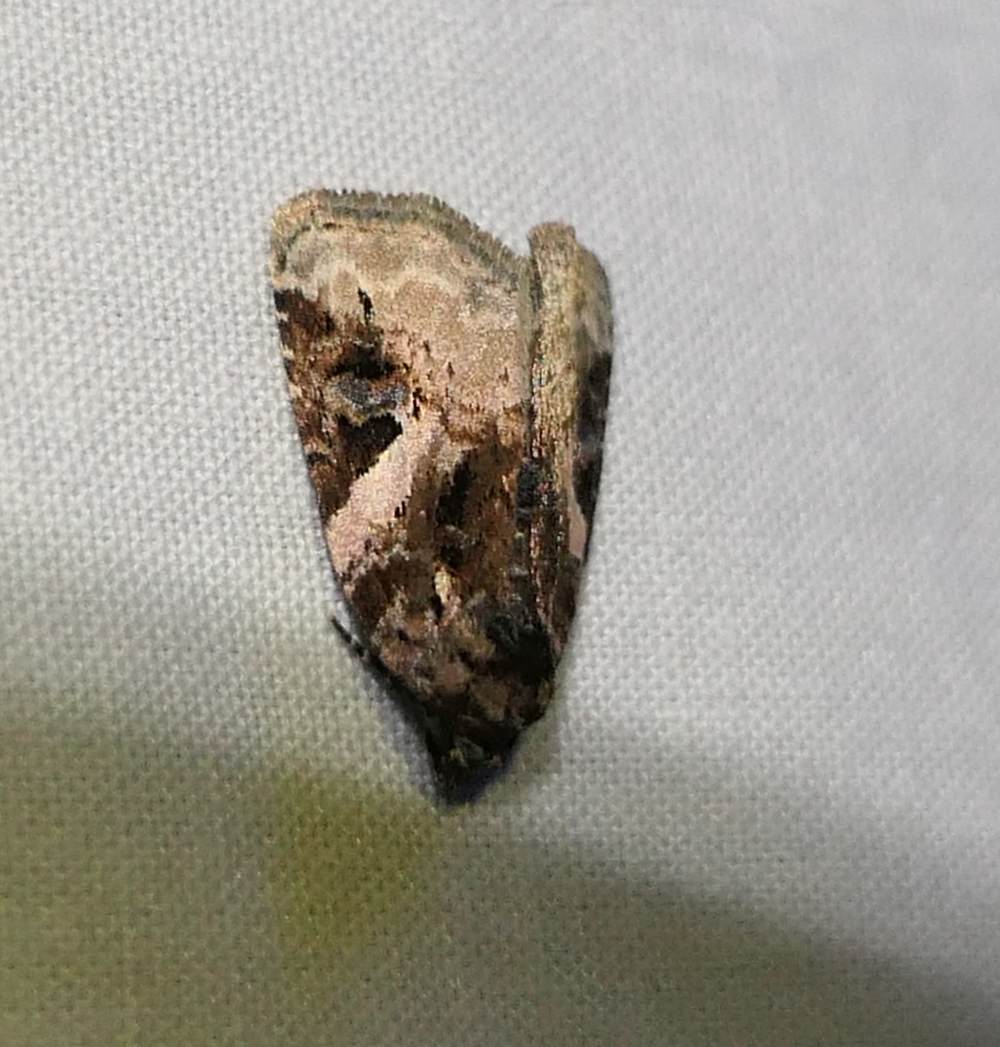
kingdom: Animalia
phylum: Arthropoda
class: Insecta
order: Lepidoptera
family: Noctuidae
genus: Pseudeustrotia
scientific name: Pseudeustrotia carneola
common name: Pink-barred lithacodia moth
